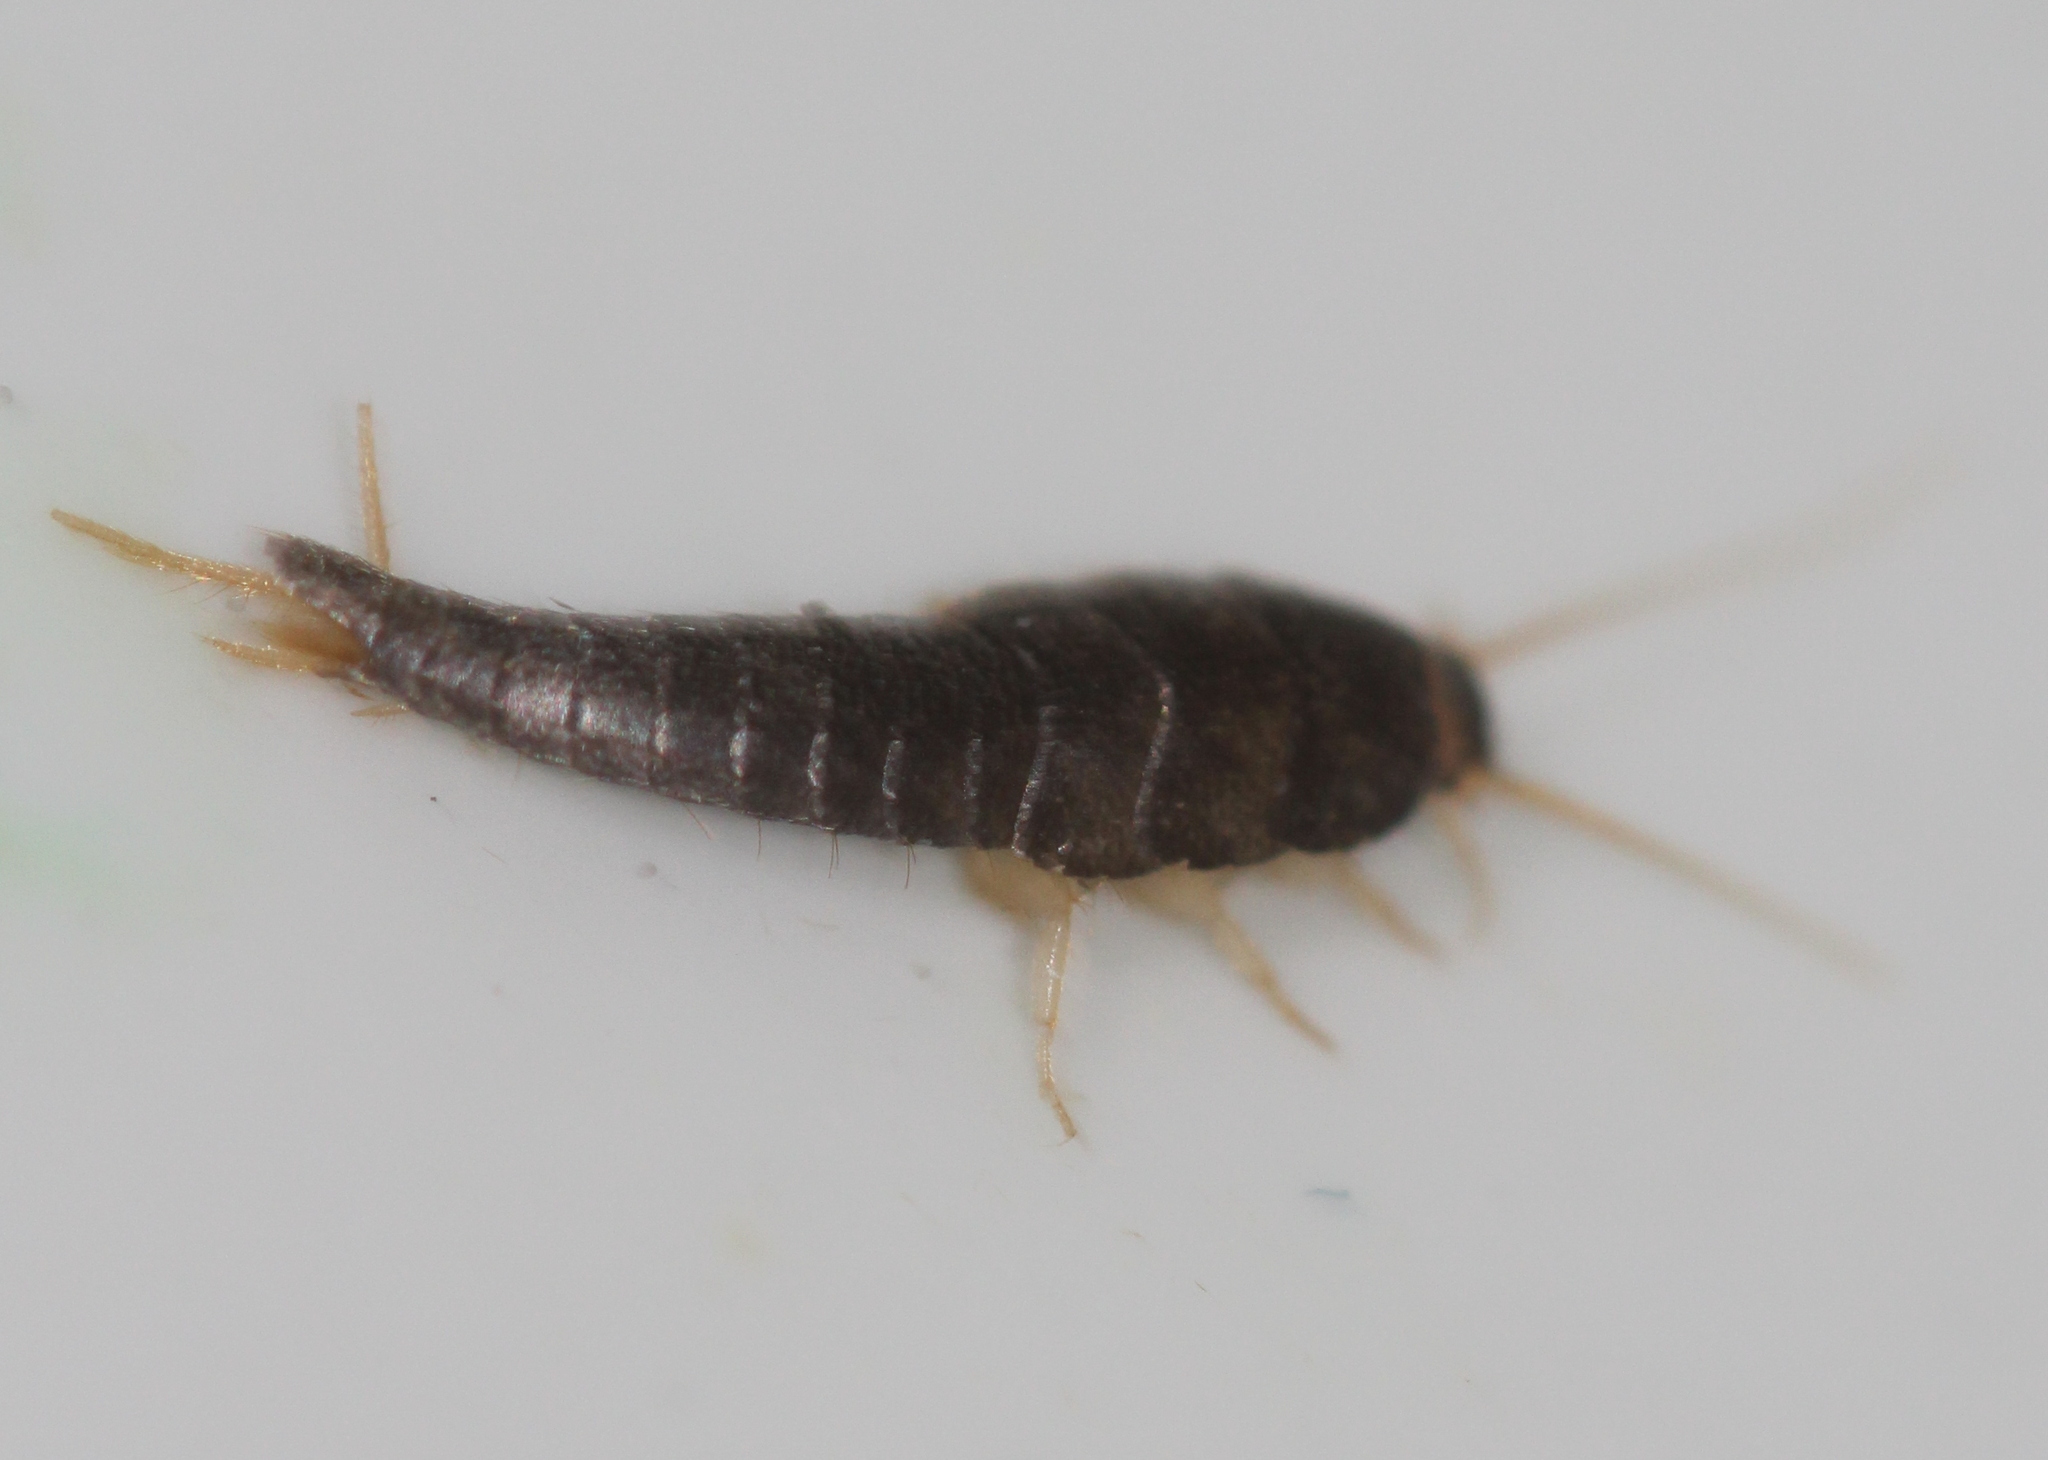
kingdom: Animalia
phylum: Arthropoda
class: Insecta
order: Zygentoma
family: Lepismatidae
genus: Lepisma
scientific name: Lepisma saccharinum
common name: Silverfish
